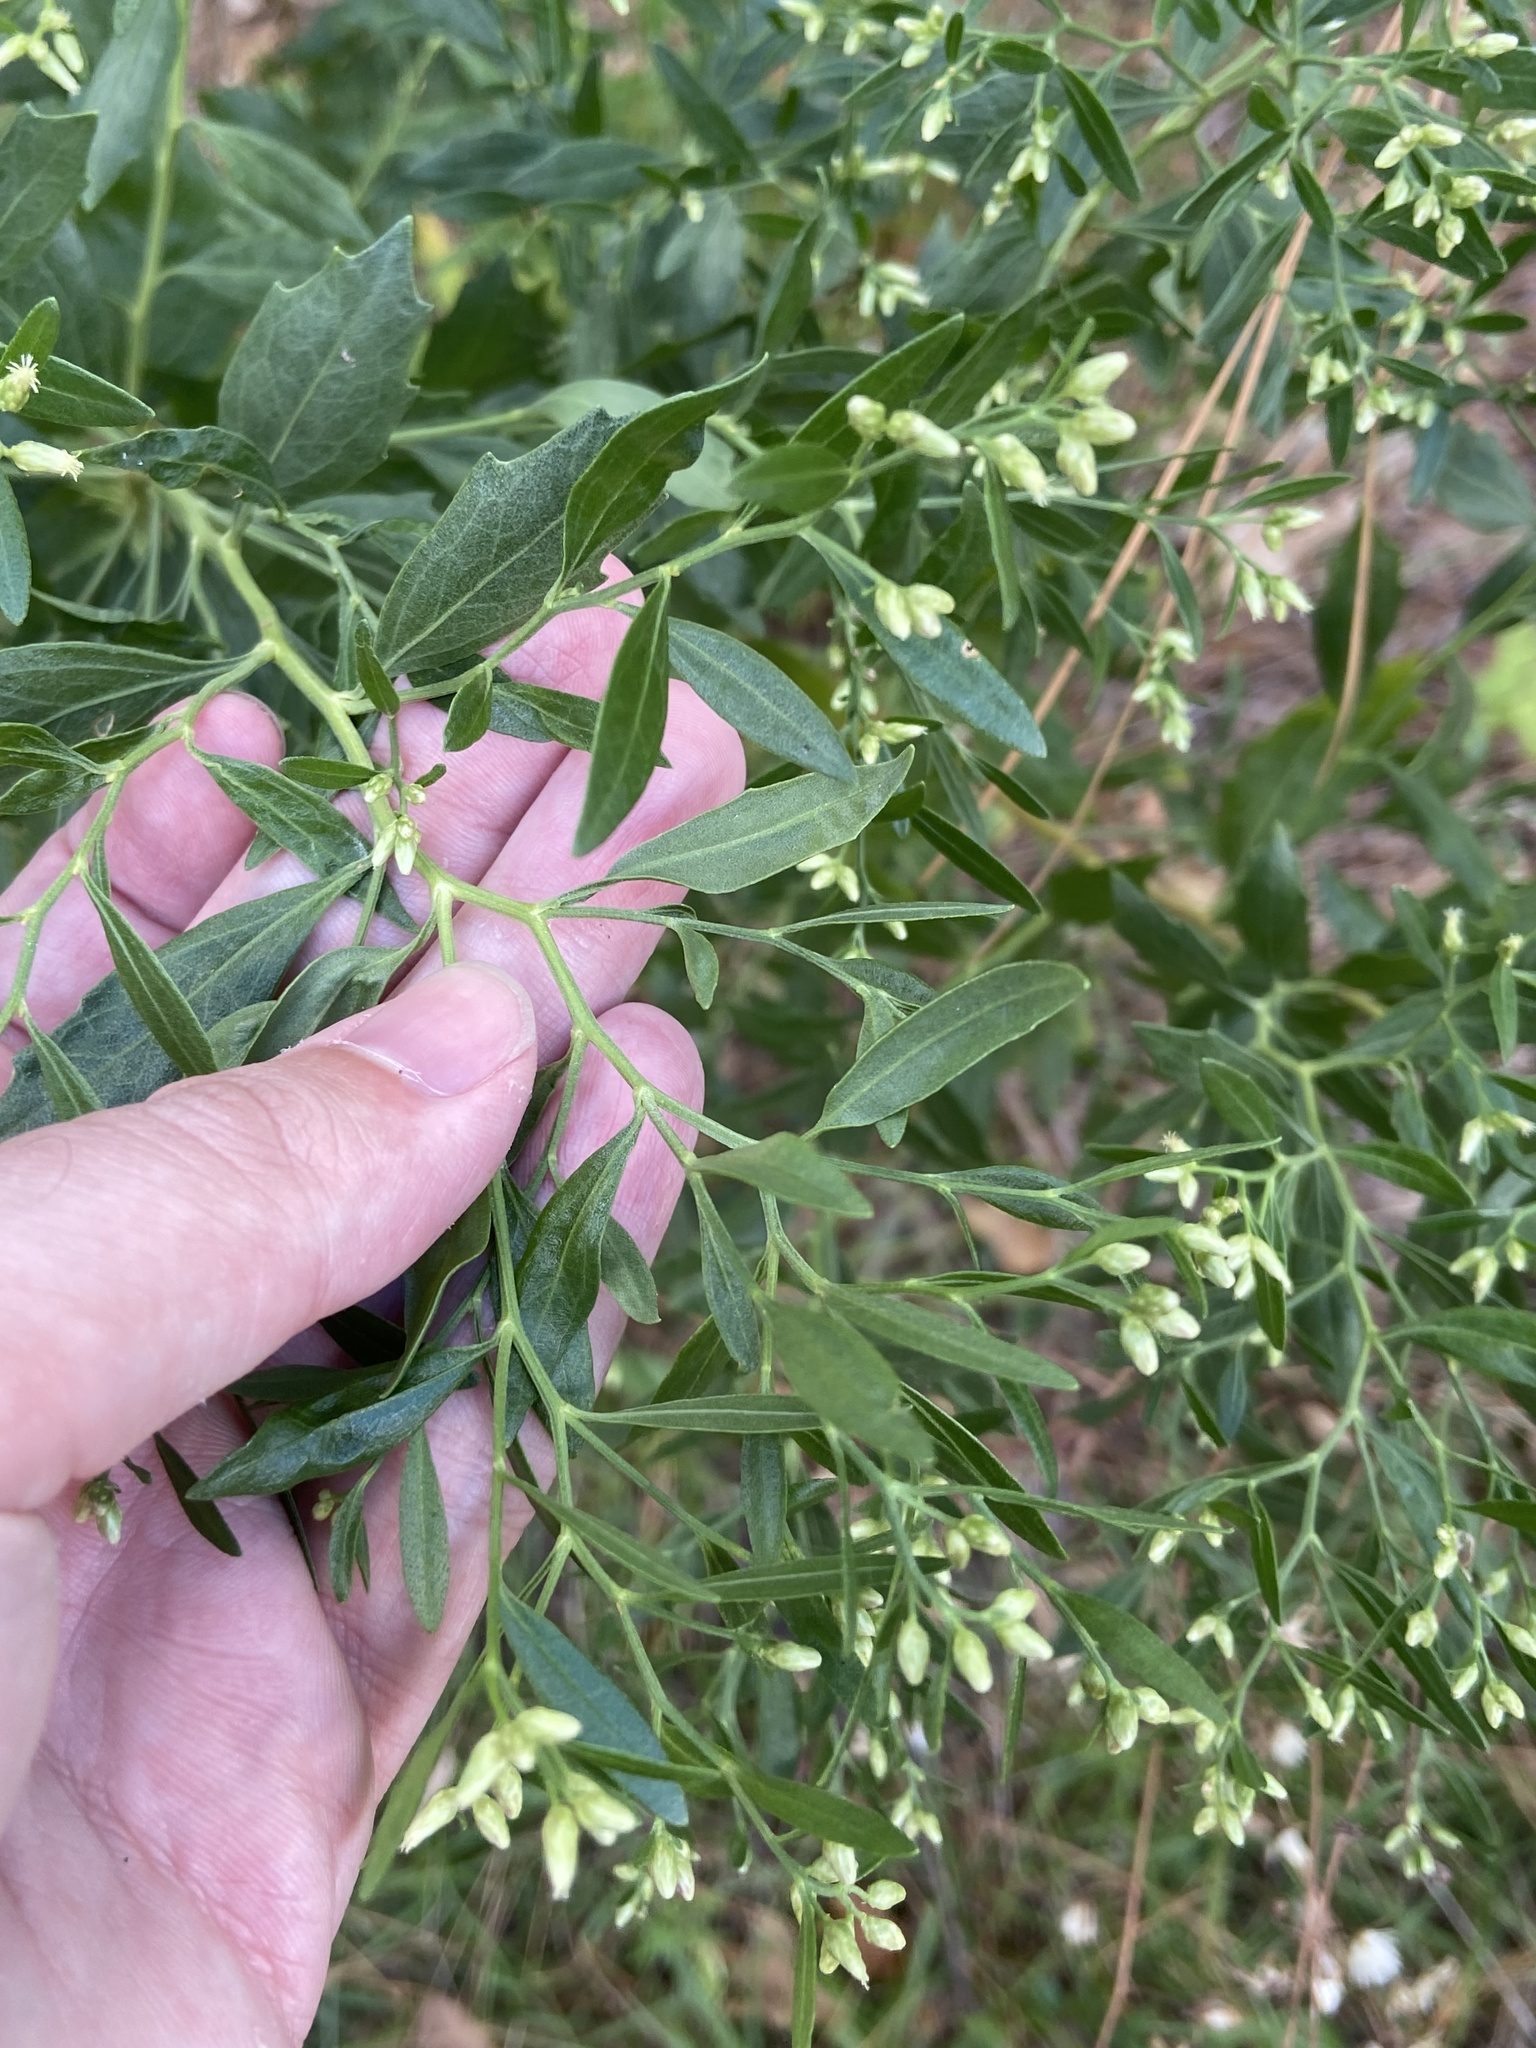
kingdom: Plantae
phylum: Tracheophyta
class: Magnoliopsida
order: Asterales
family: Asteraceae
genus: Baccharis
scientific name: Baccharis halimifolia
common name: Eastern baccharis
